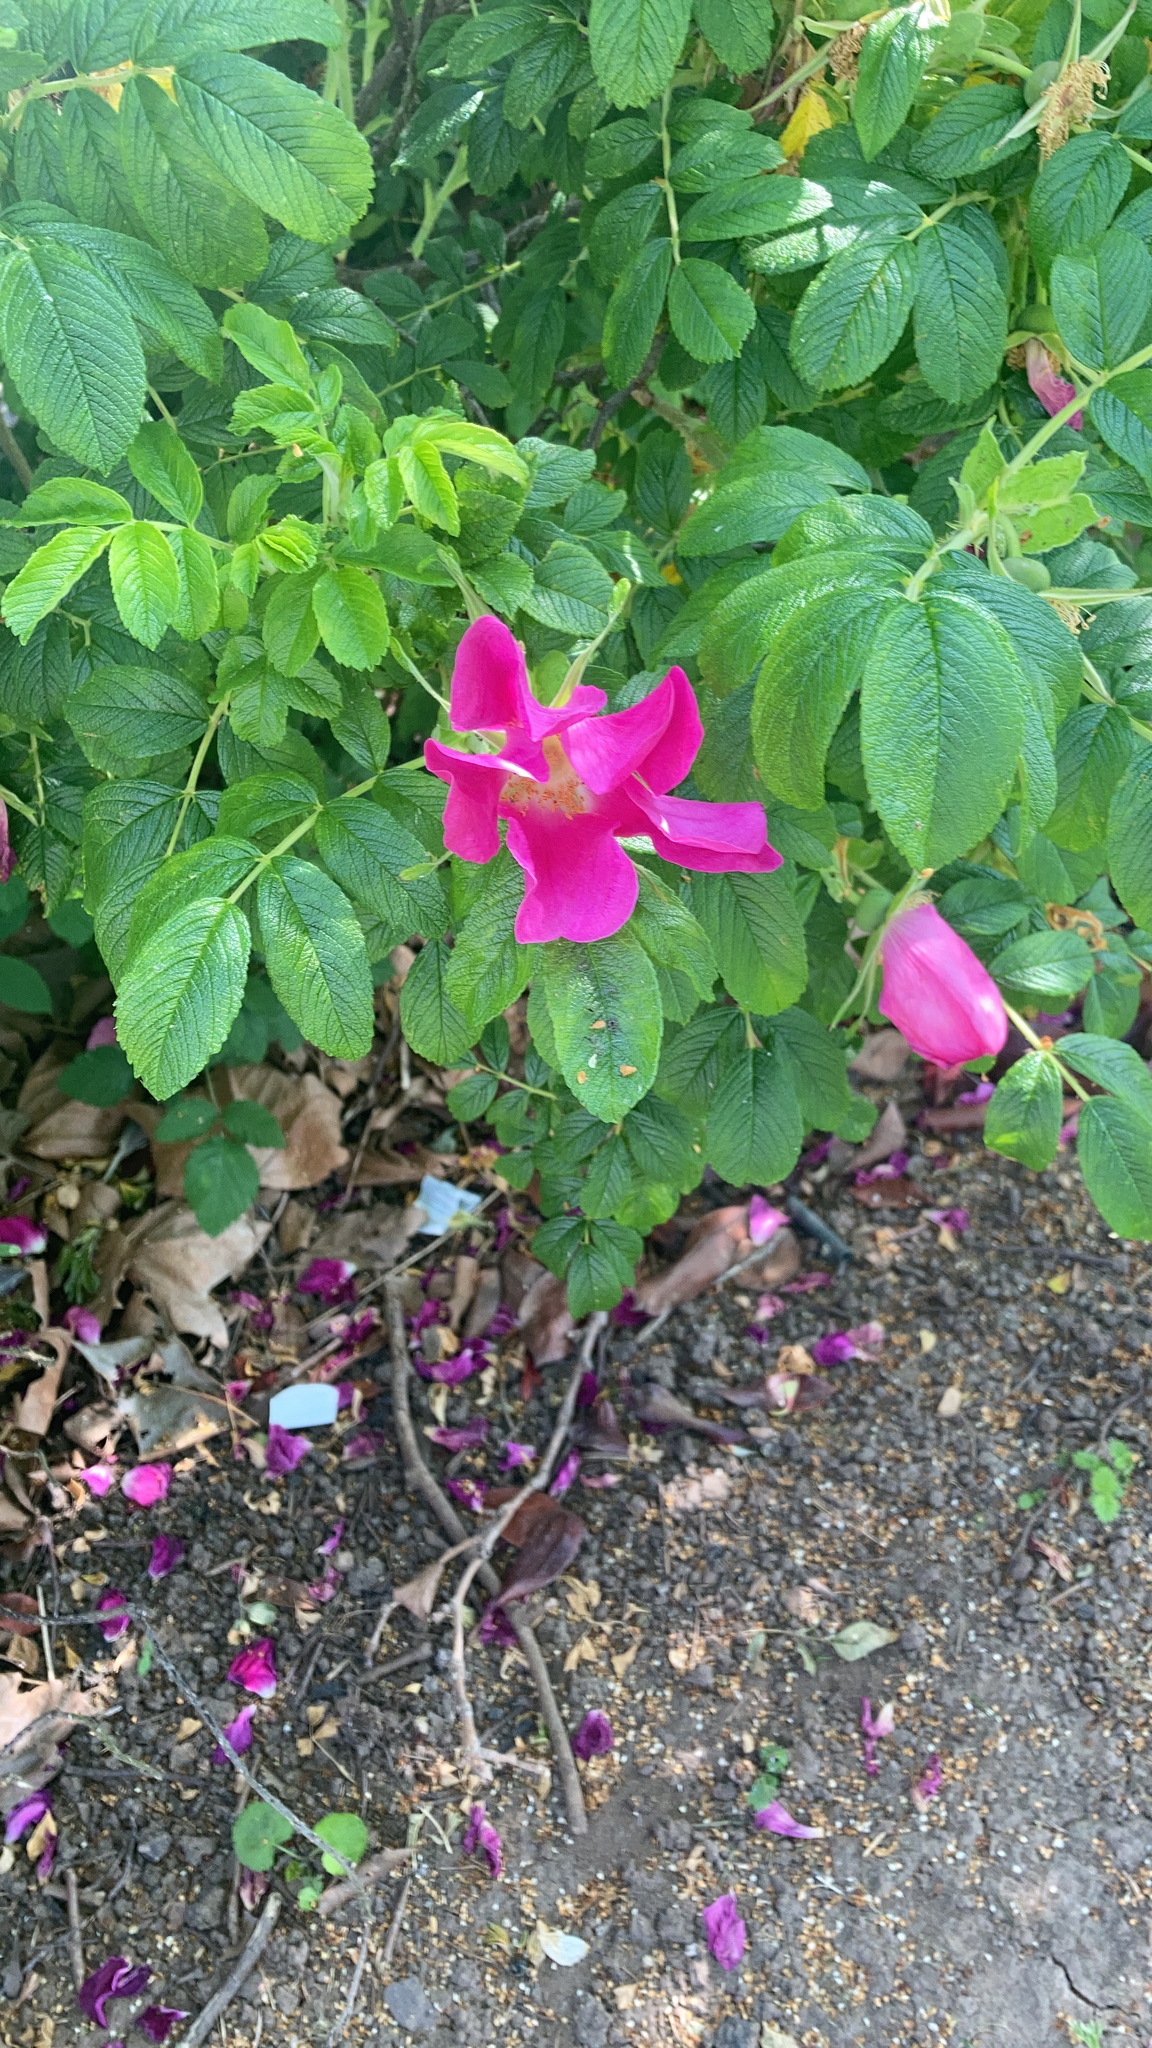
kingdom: Plantae
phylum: Tracheophyta
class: Magnoliopsida
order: Rosales
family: Rosaceae
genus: Rosa
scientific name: Rosa rugosa
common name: Japanese rose
